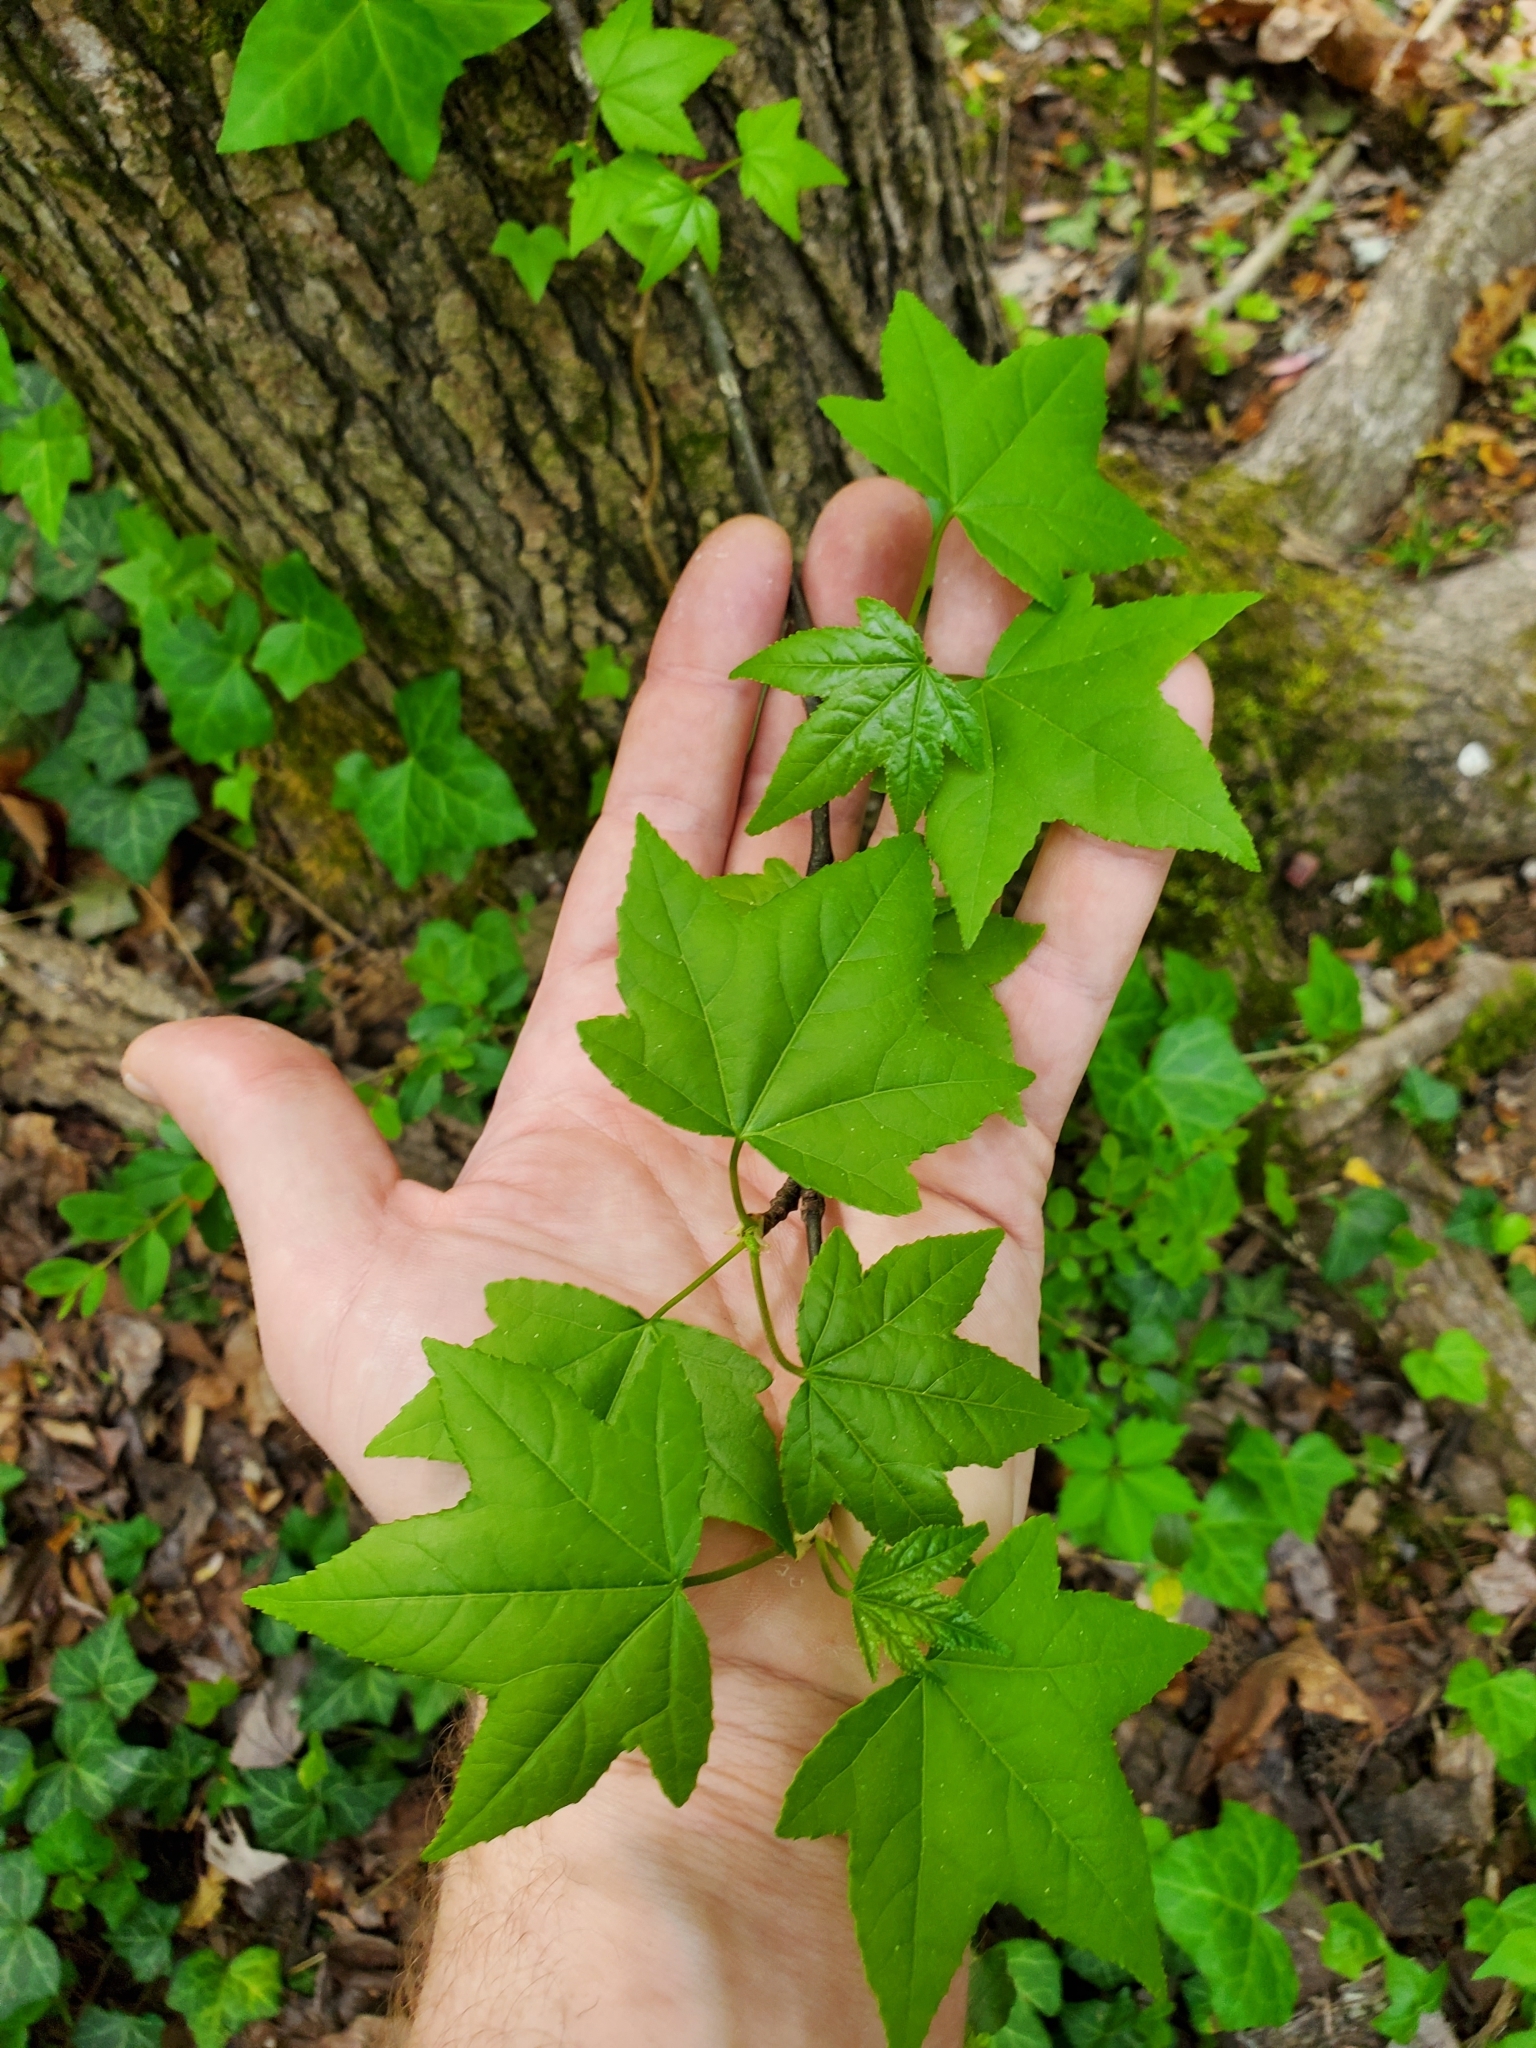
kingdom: Plantae
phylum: Tracheophyta
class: Magnoliopsida
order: Saxifragales
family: Altingiaceae
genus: Liquidambar
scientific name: Liquidambar styraciflua
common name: Sweet gum
